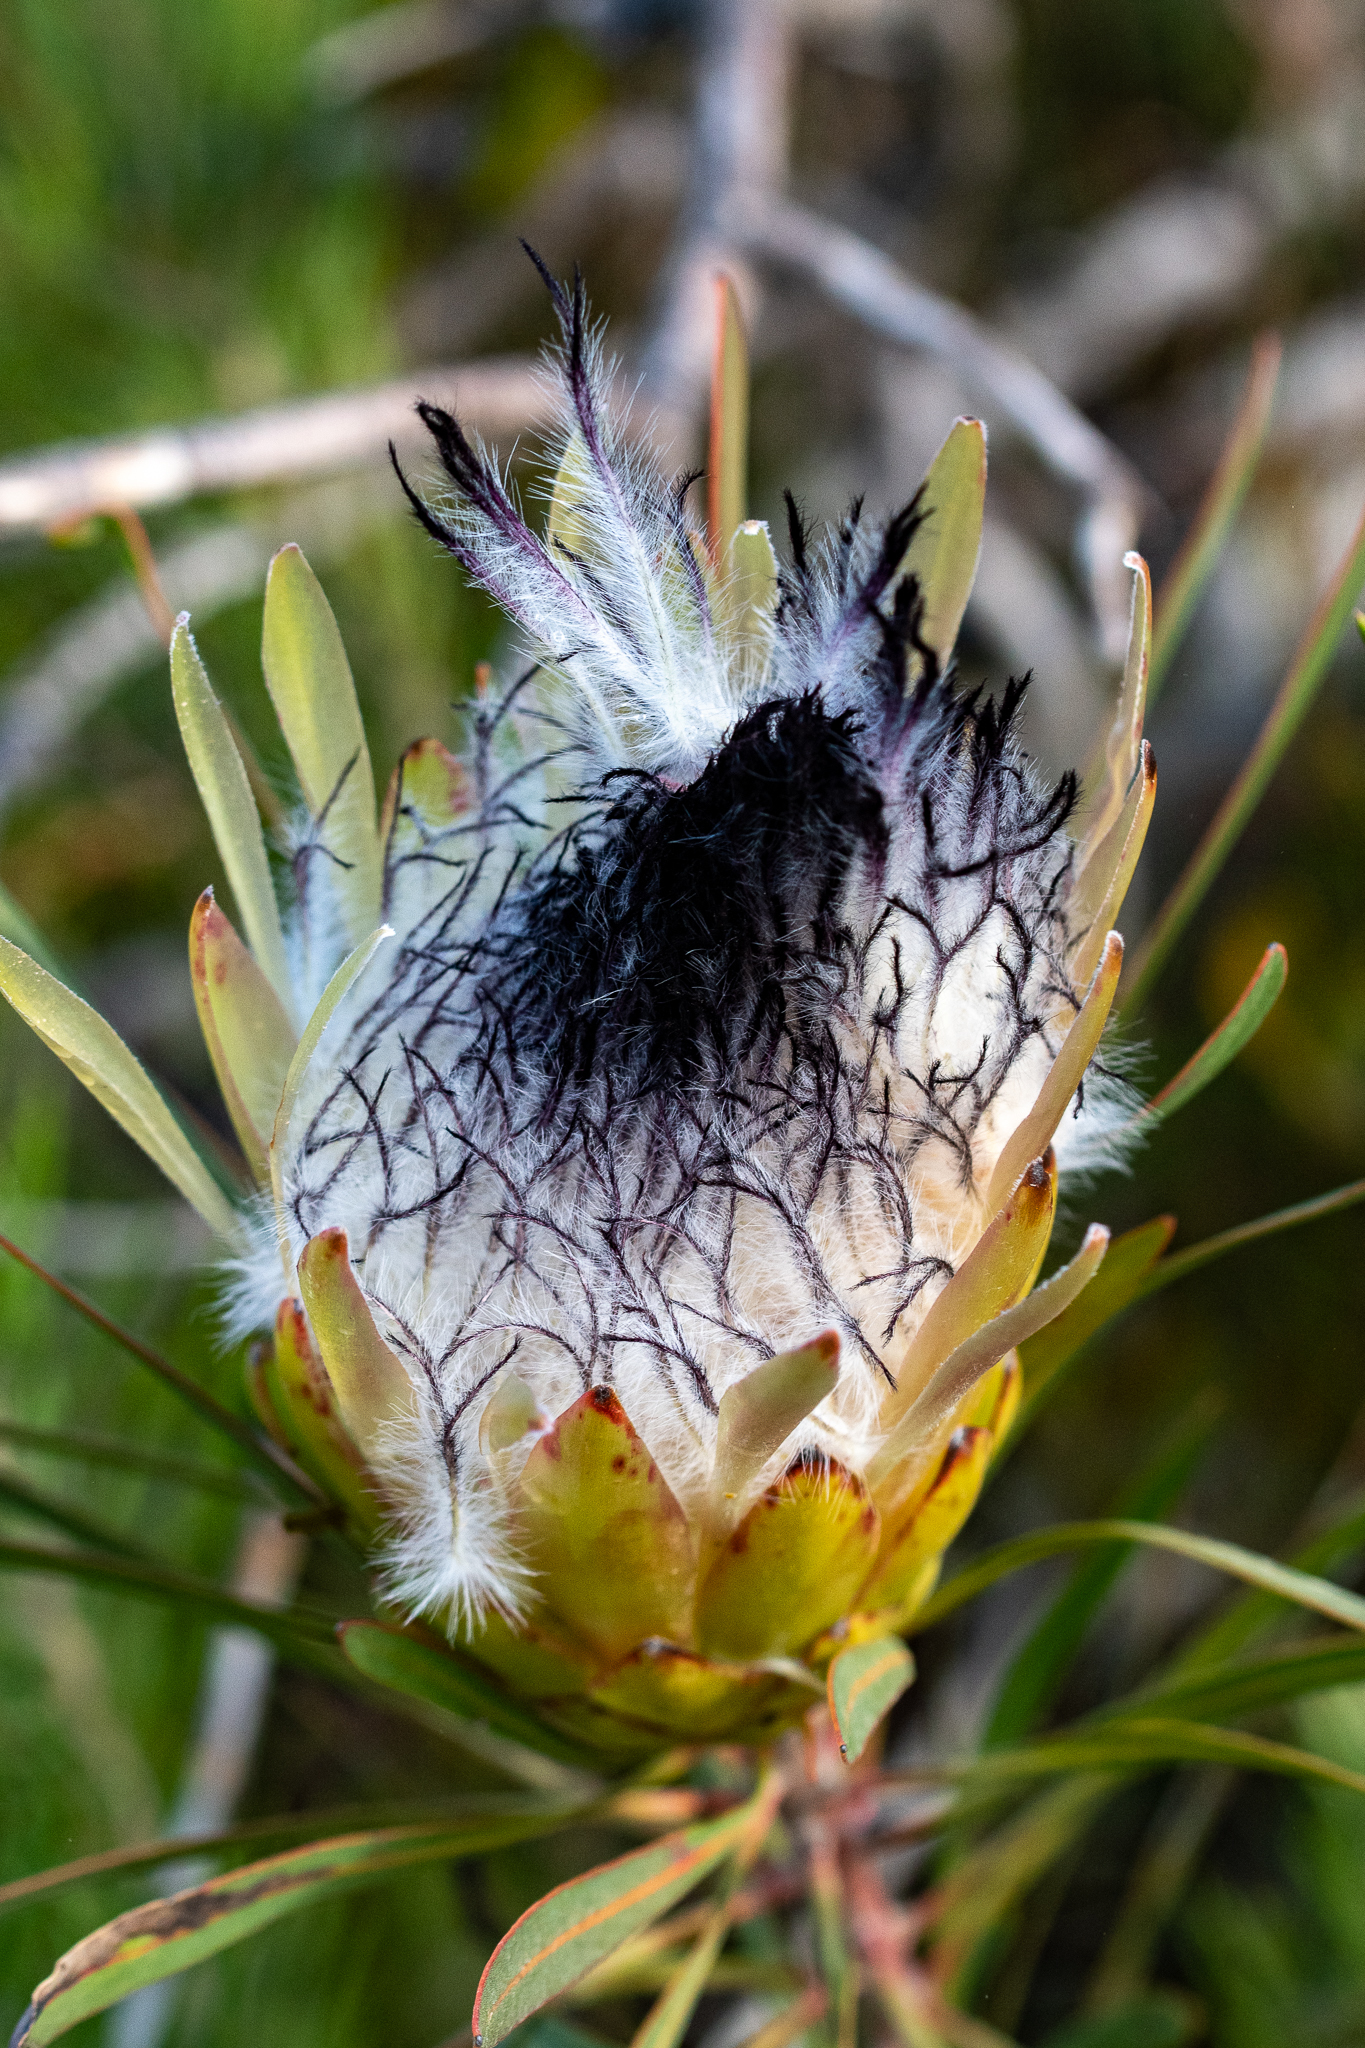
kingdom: Plantae
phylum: Tracheophyta
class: Magnoliopsida
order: Proteales
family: Proteaceae
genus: Protea
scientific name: Protea longifolia
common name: Long-leaf sugarbush
